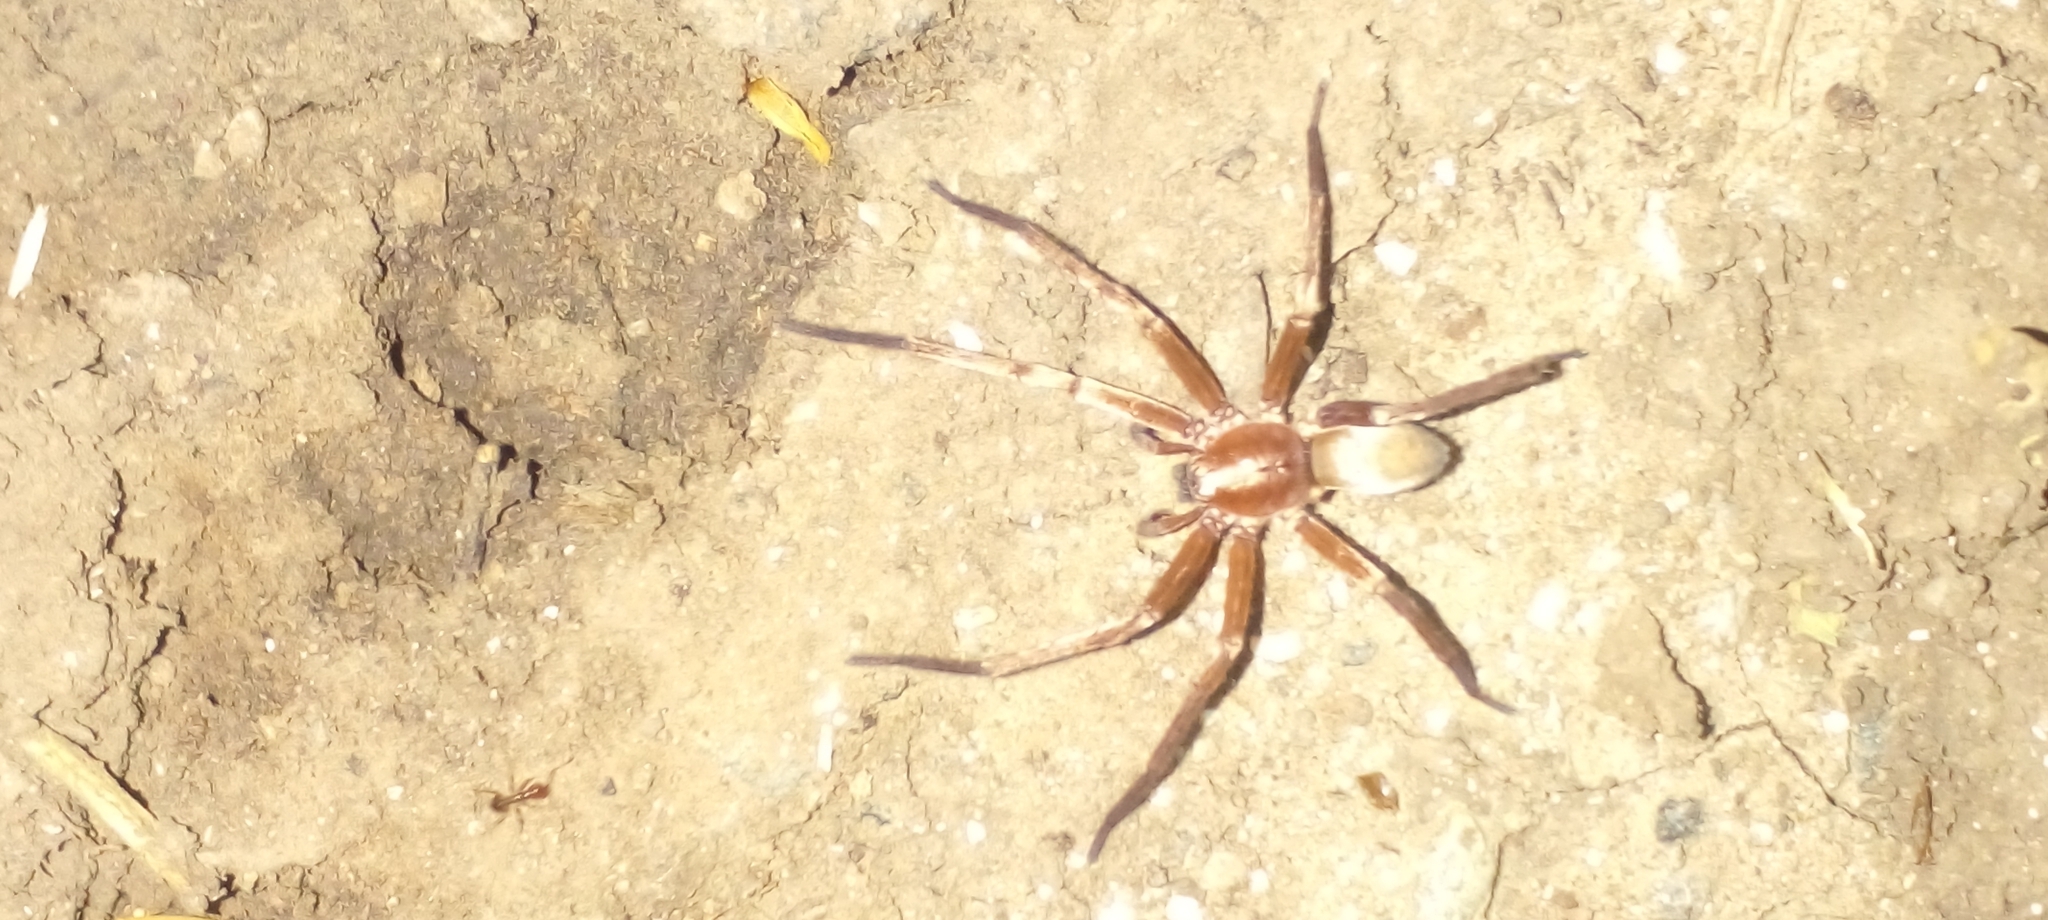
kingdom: Animalia
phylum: Arthropoda
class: Arachnida
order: Araneae
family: Ctenidae
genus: Asthenoctenus
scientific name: Asthenoctenus borellii
